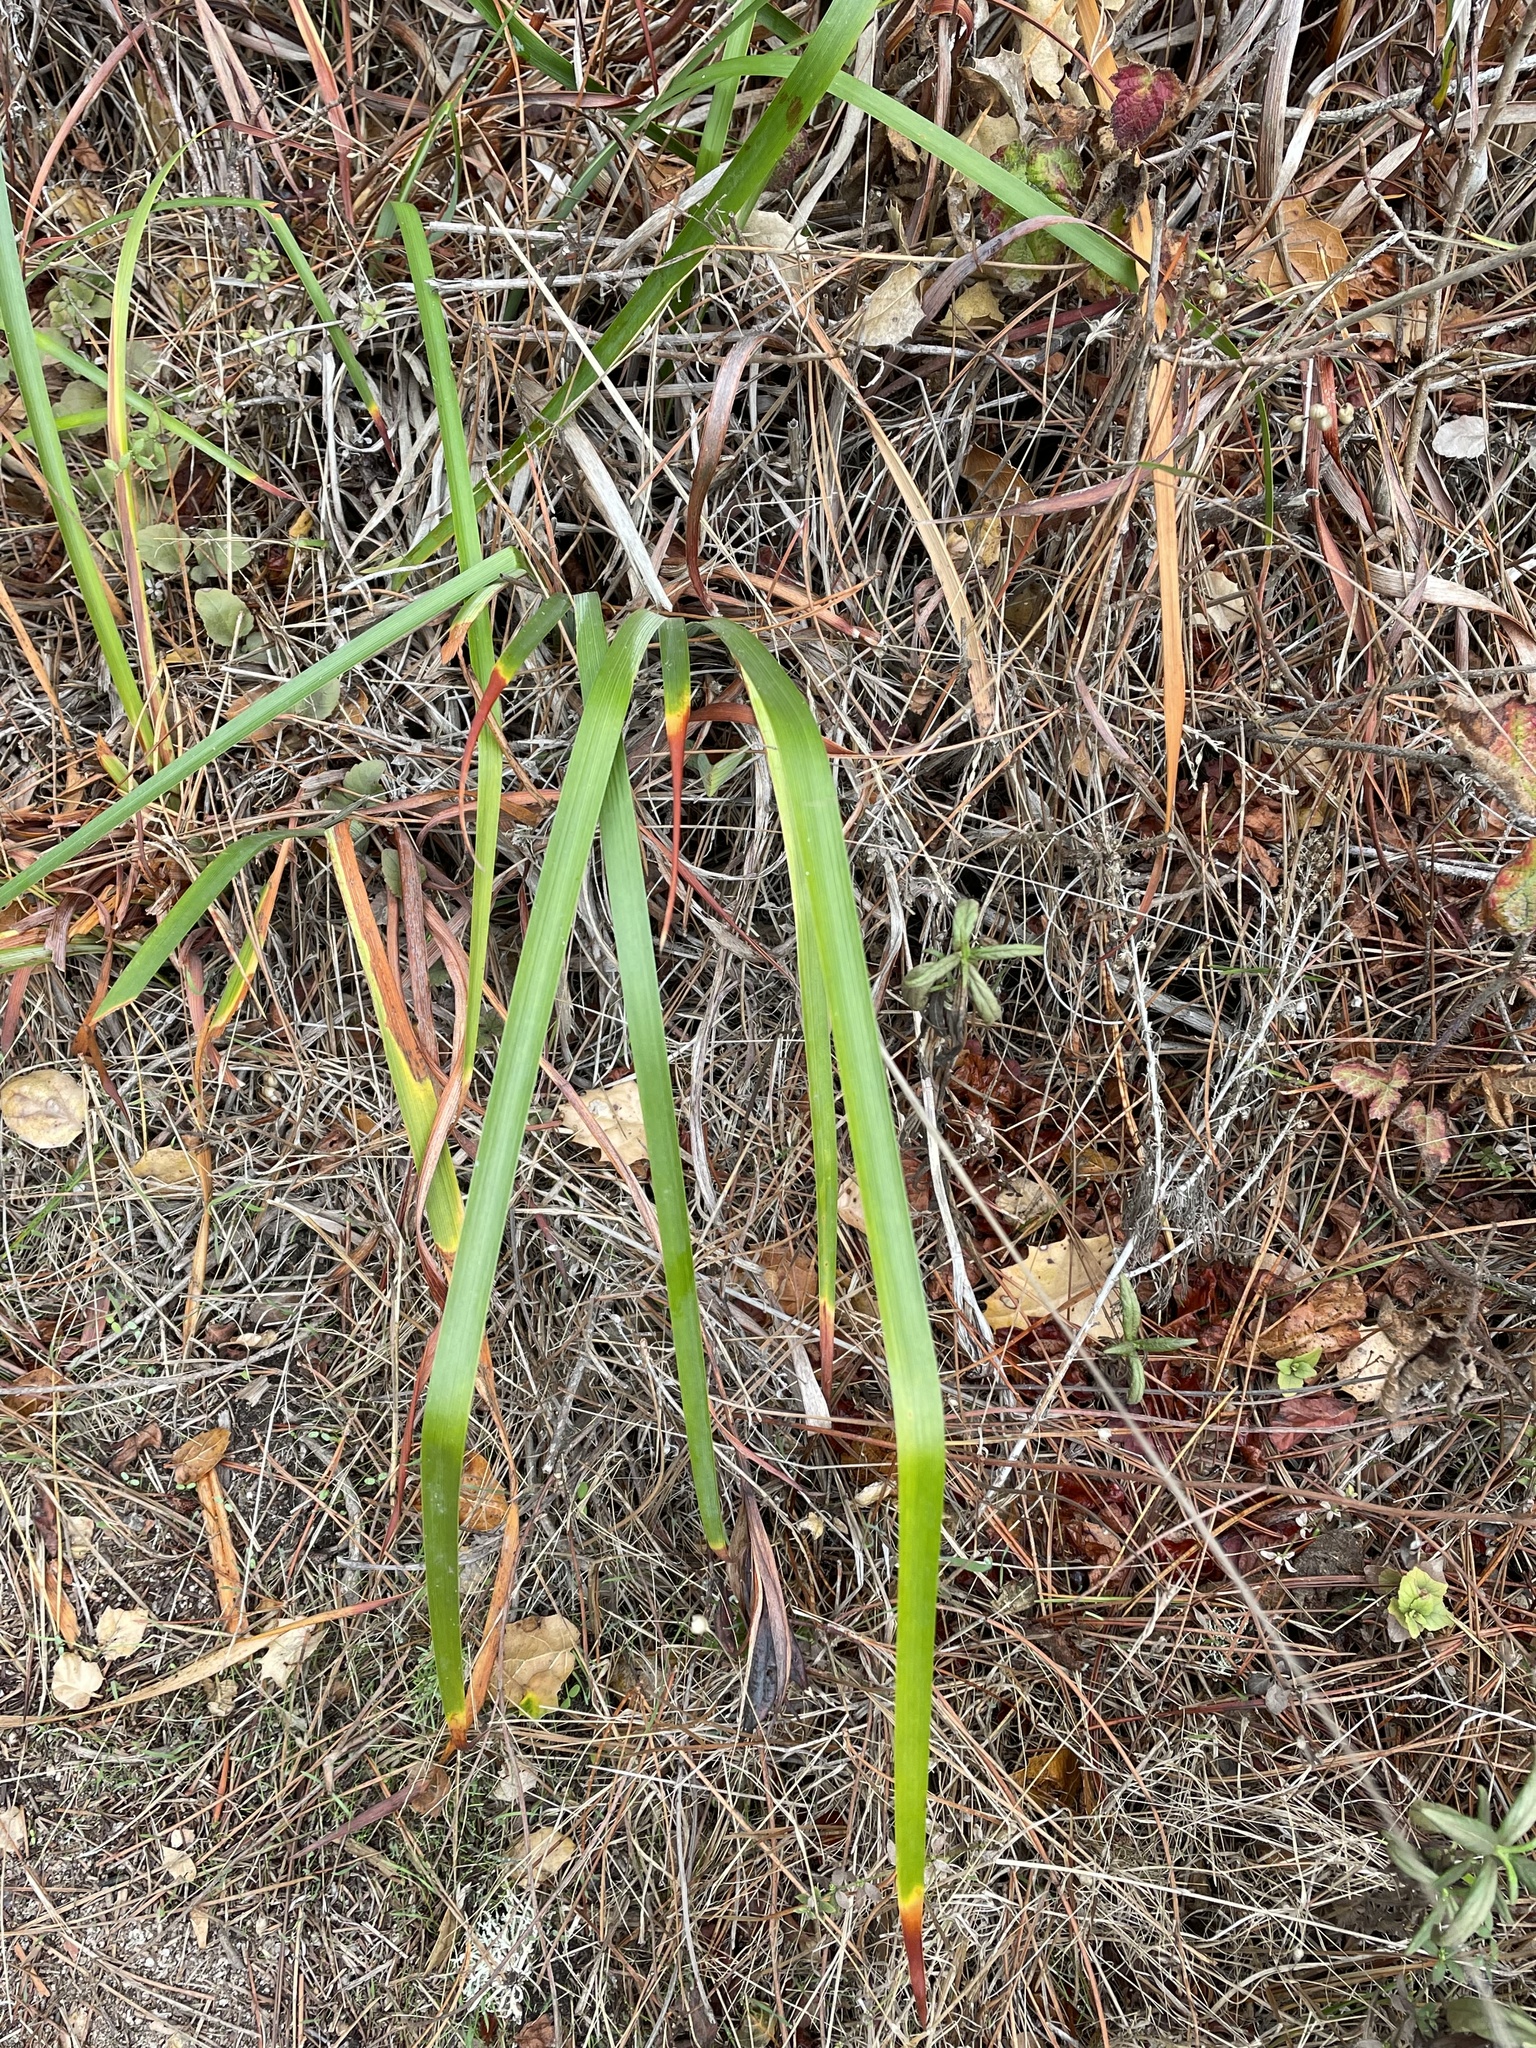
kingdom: Plantae
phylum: Tracheophyta
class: Liliopsida
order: Asparagales
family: Iridaceae
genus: Iris
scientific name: Iris douglasiana
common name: Marin iris
